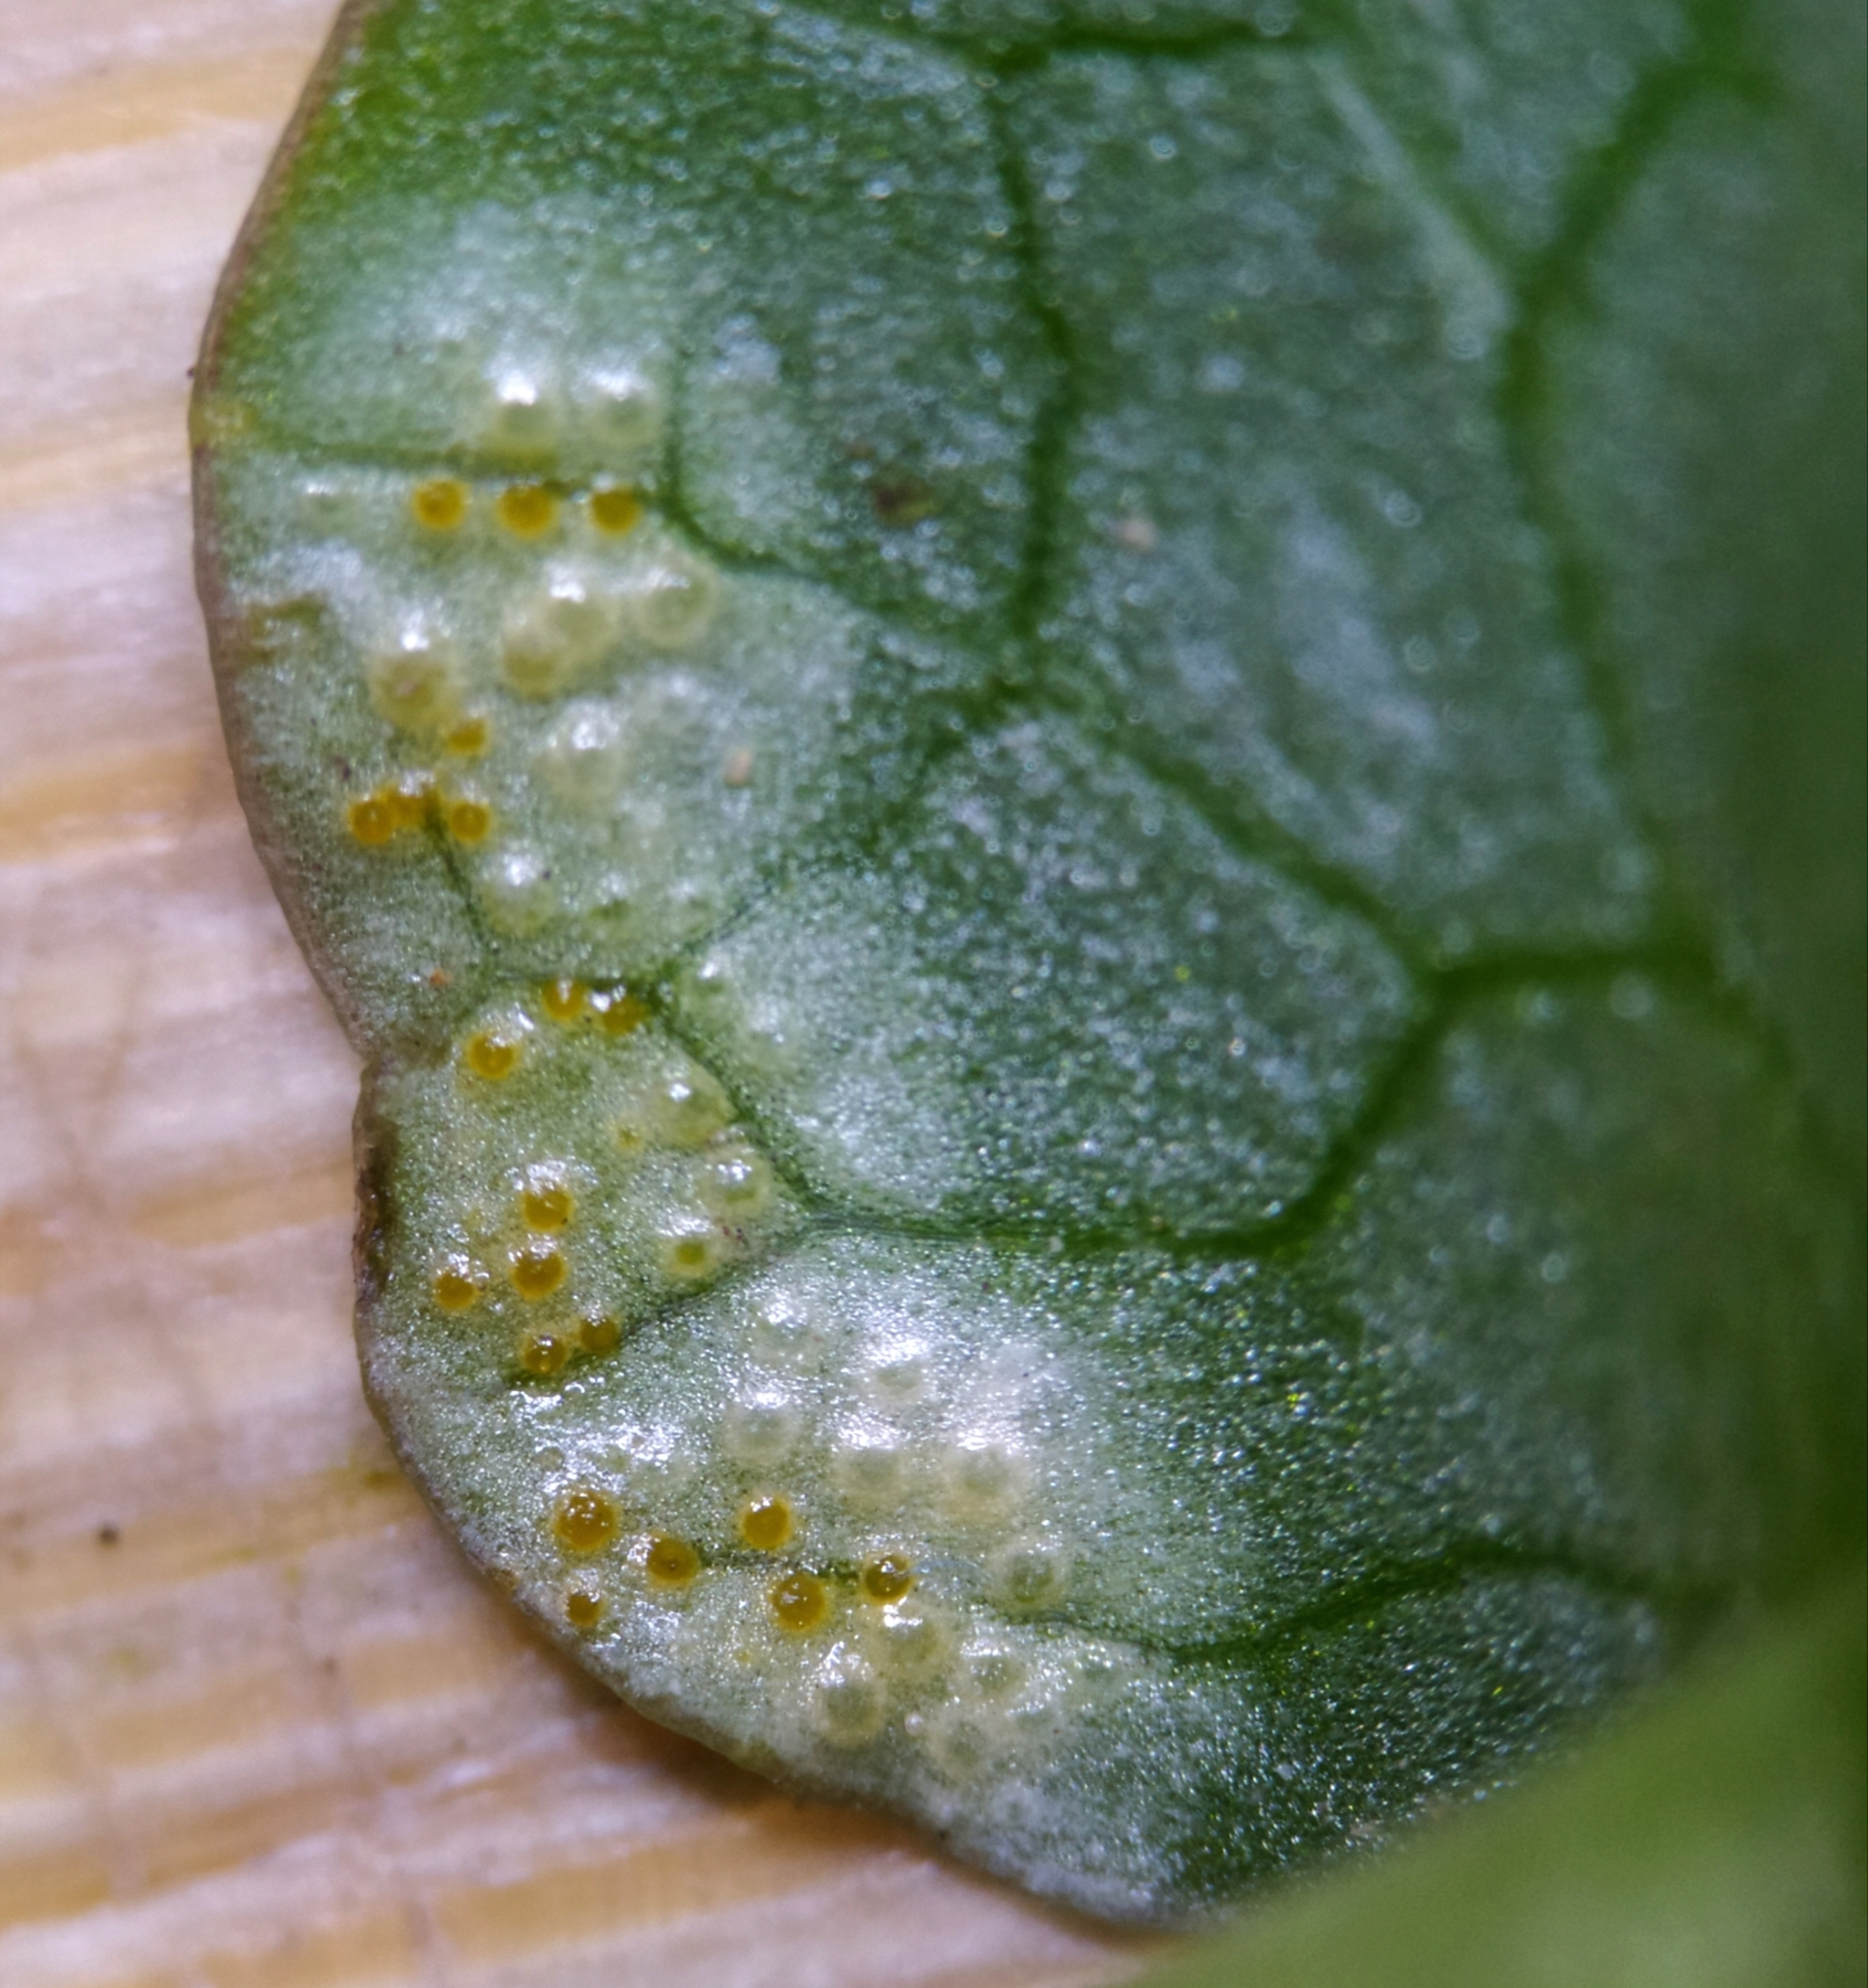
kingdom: Fungi
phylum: Basidiomycota
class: Pucciniomycetes
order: Pucciniales
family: Pucciniaceae
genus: Uromyces
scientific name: Uromyces
